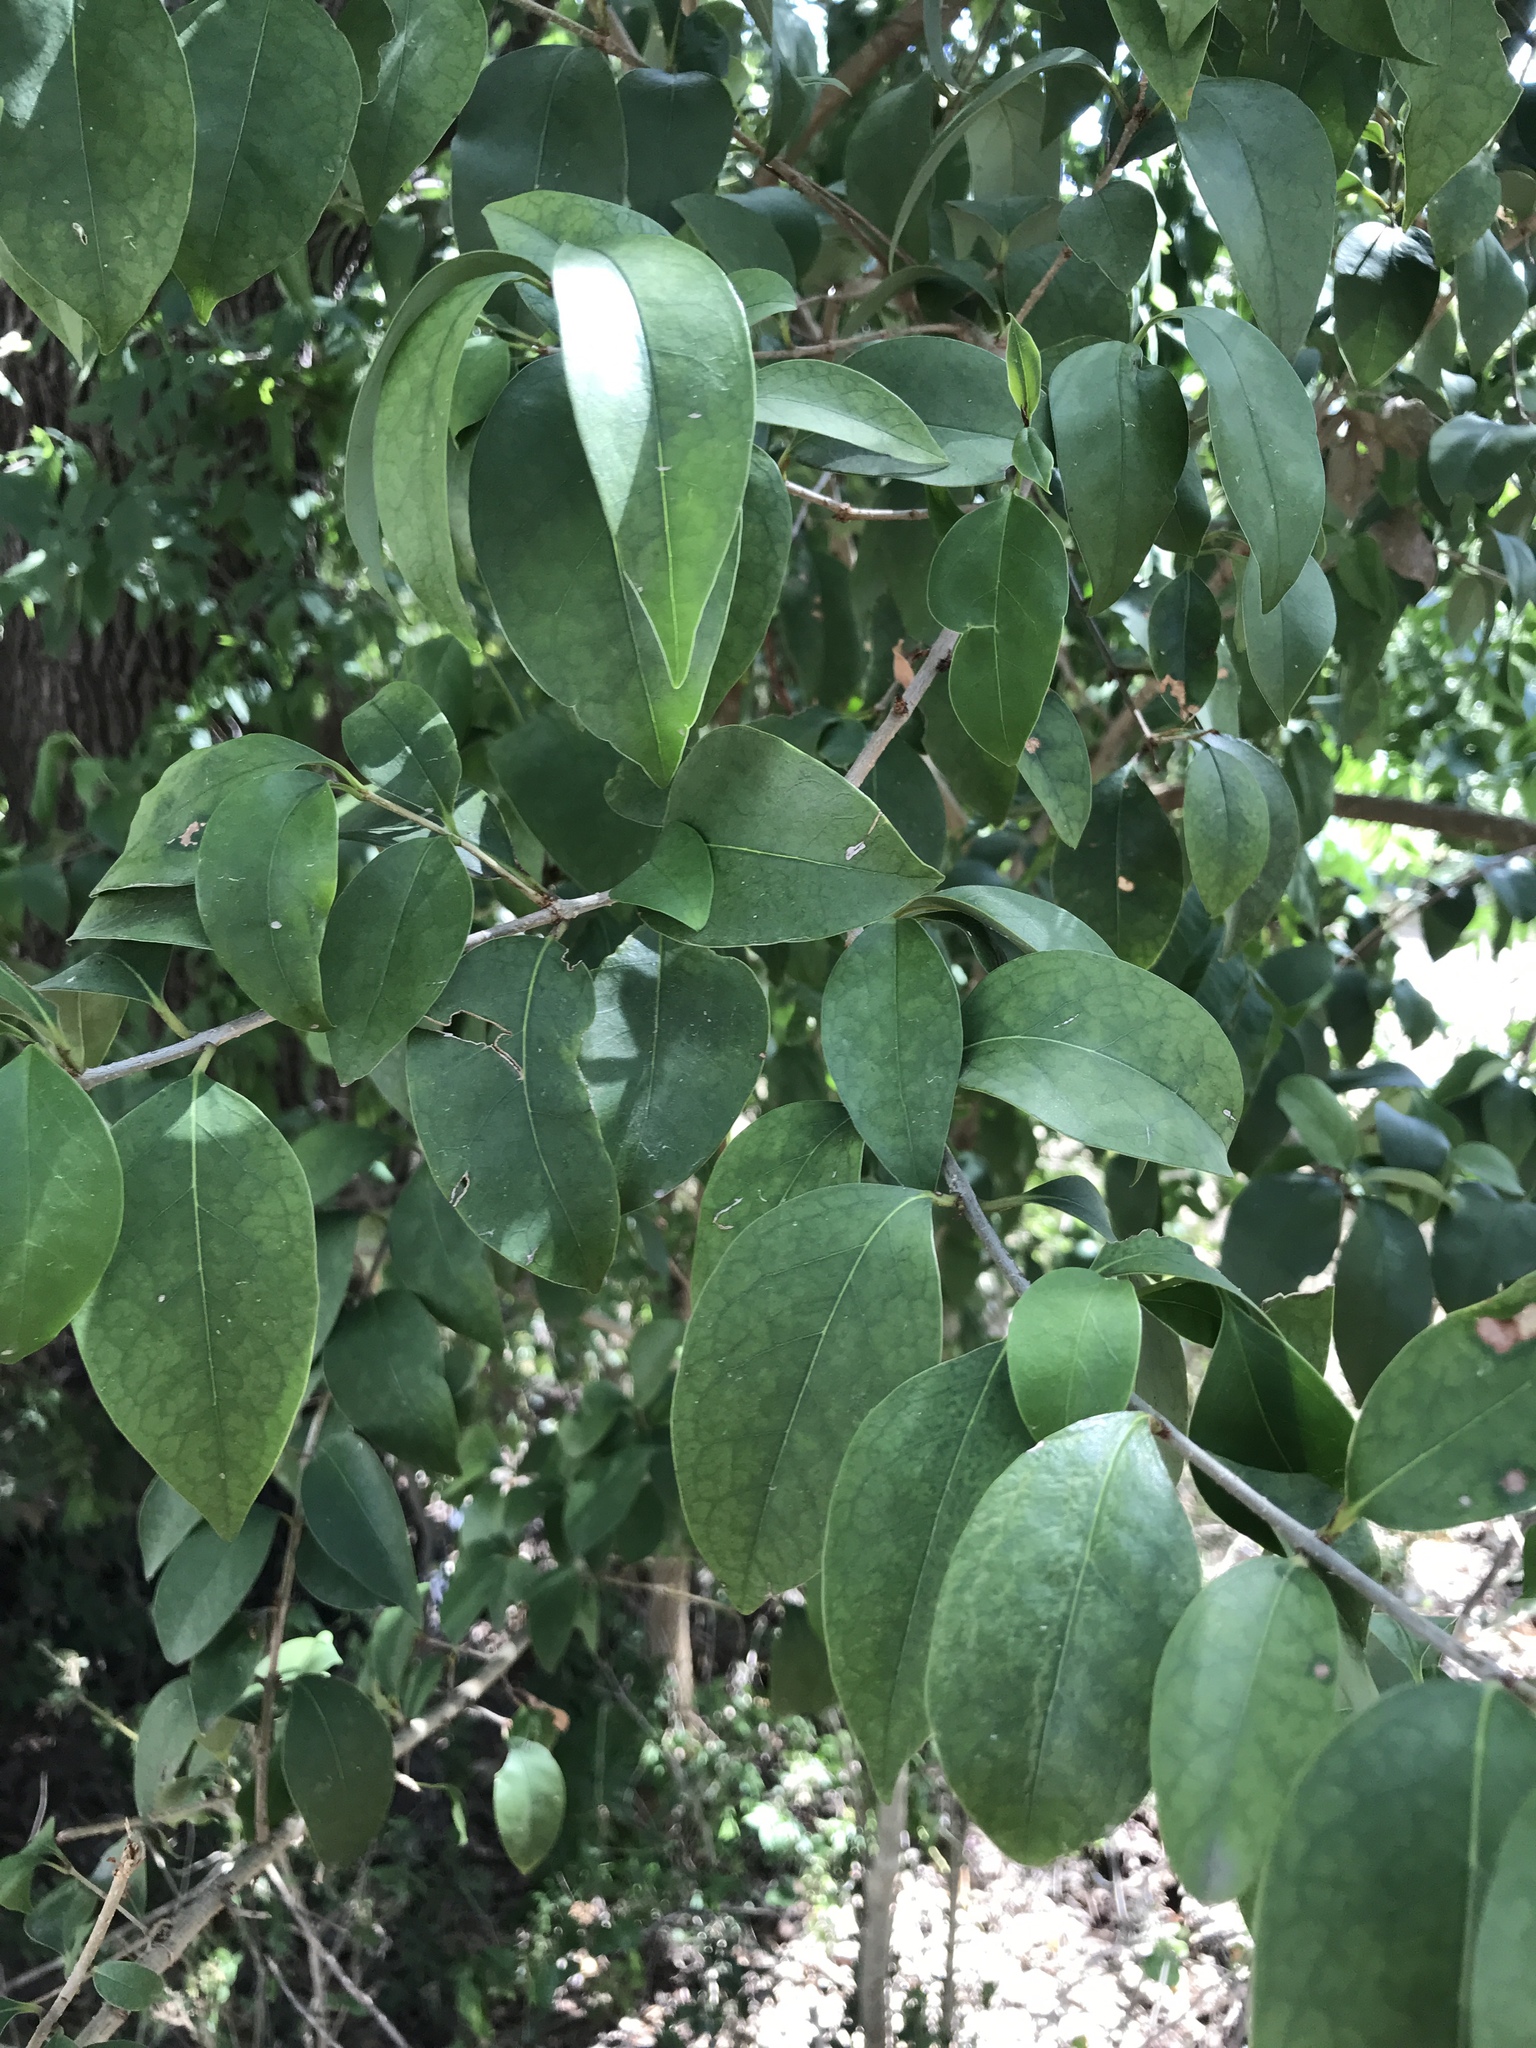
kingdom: Plantae
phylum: Tracheophyta
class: Magnoliopsida
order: Lamiales
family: Oleaceae
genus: Ligustrum
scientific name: Ligustrum lucidum
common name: Glossy privet
